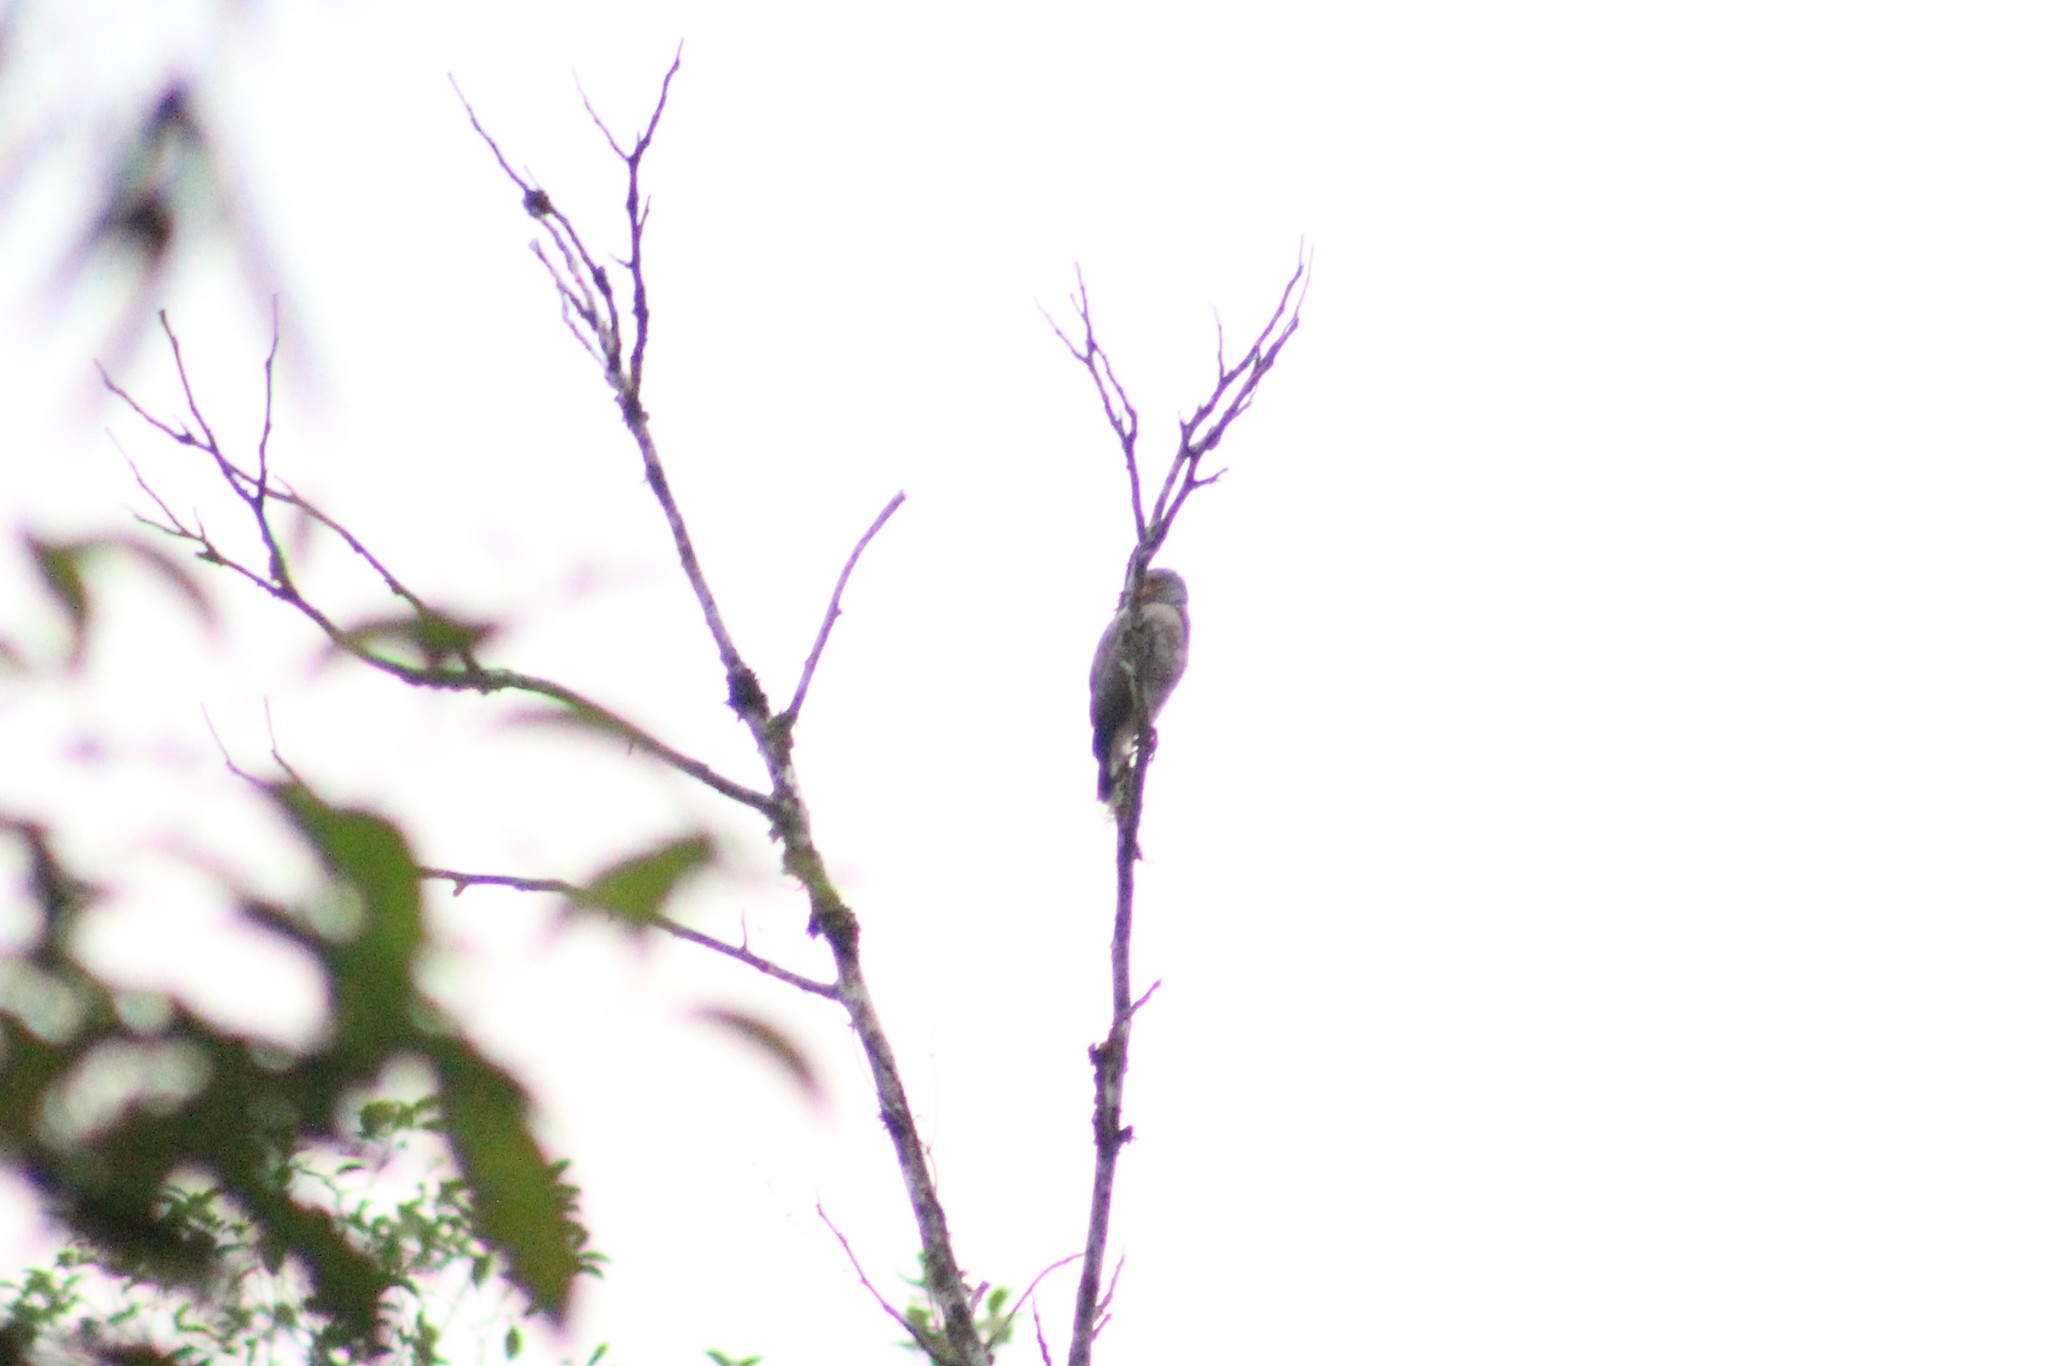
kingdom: Animalia
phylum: Chordata
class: Aves
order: Accipitriformes
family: Accipitridae
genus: Rupornis
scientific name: Rupornis magnirostris
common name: Roadside hawk
